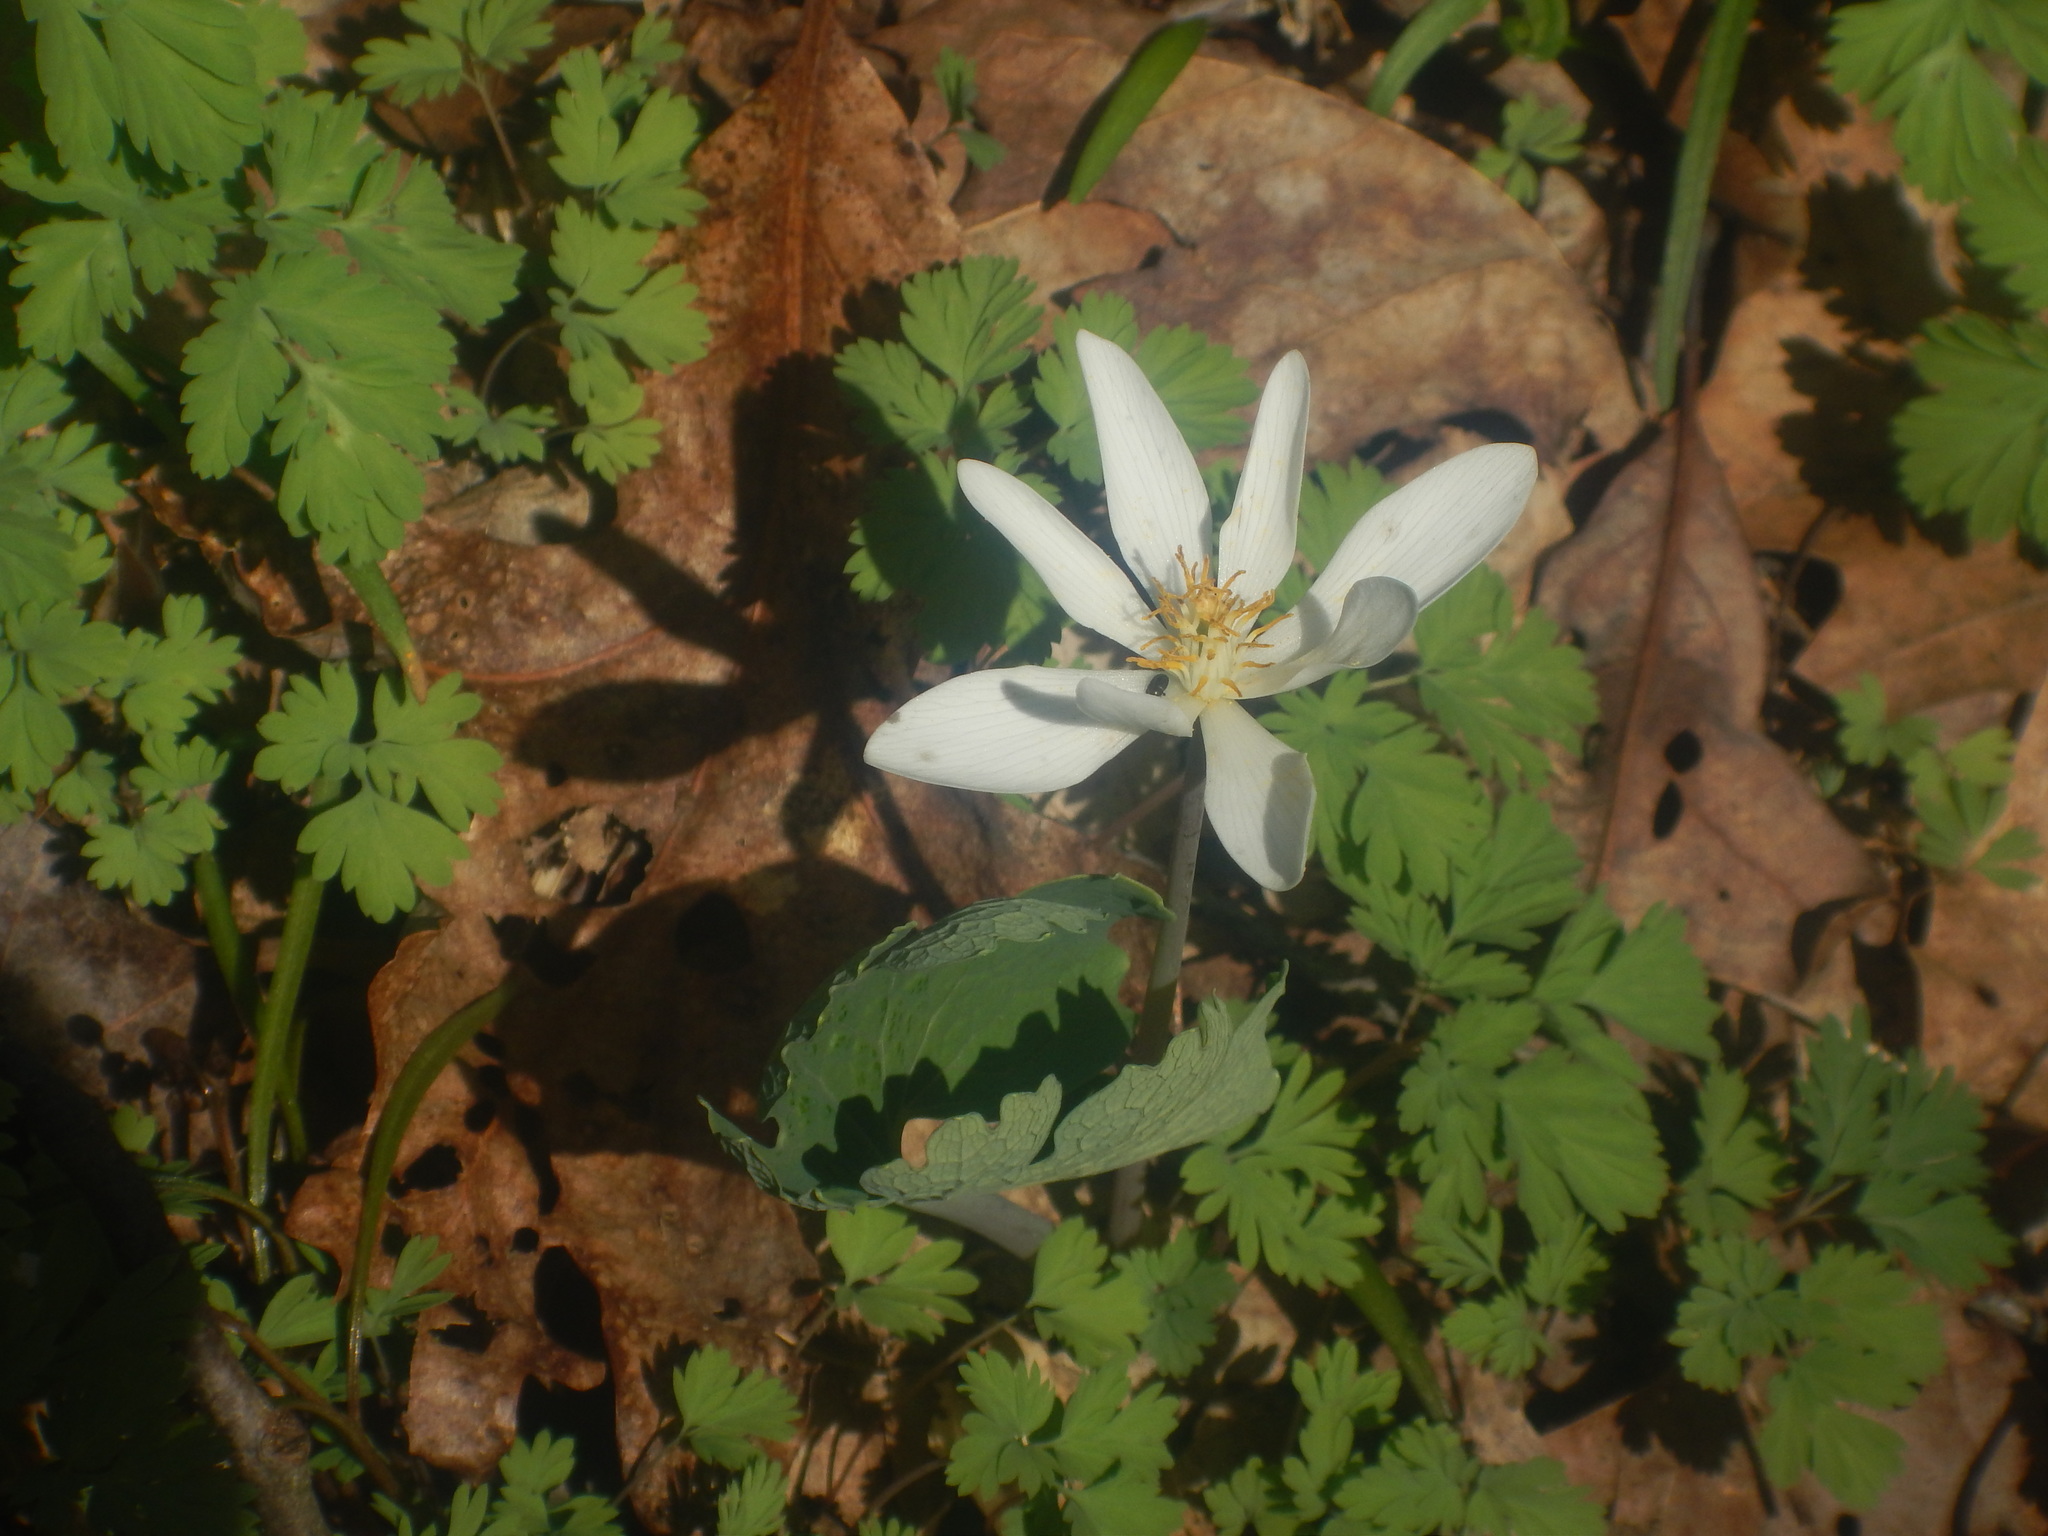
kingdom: Plantae
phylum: Tracheophyta
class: Magnoliopsida
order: Ranunculales
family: Papaveraceae
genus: Sanguinaria
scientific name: Sanguinaria canadensis
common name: Bloodroot
